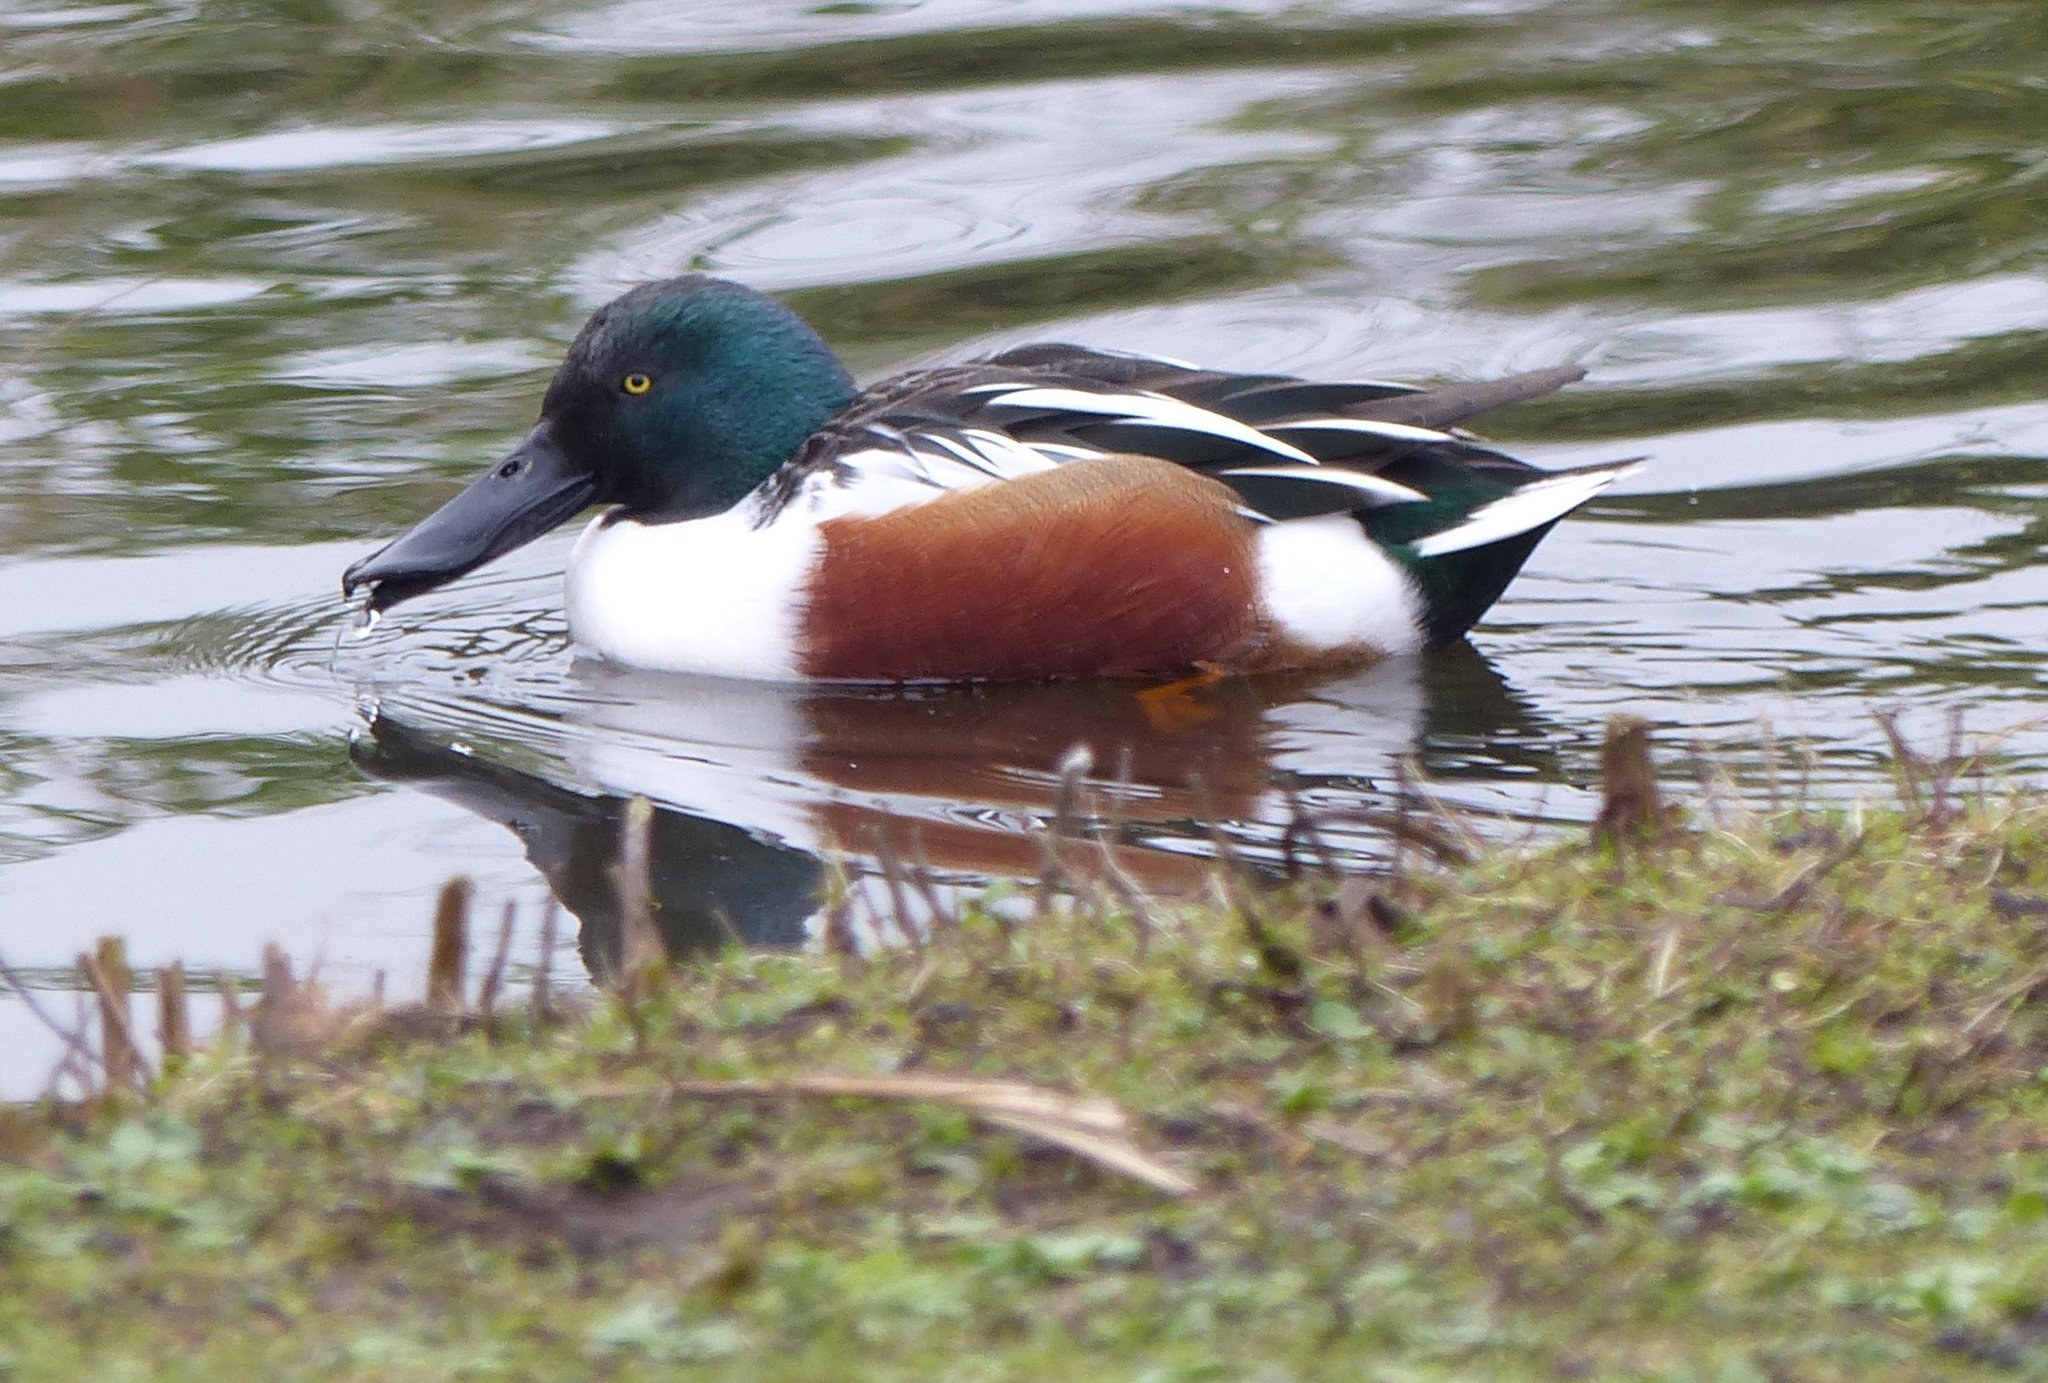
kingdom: Animalia
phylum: Chordata
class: Aves
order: Anseriformes
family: Anatidae
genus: Spatula
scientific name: Spatula clypeata
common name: Northern shoveler
